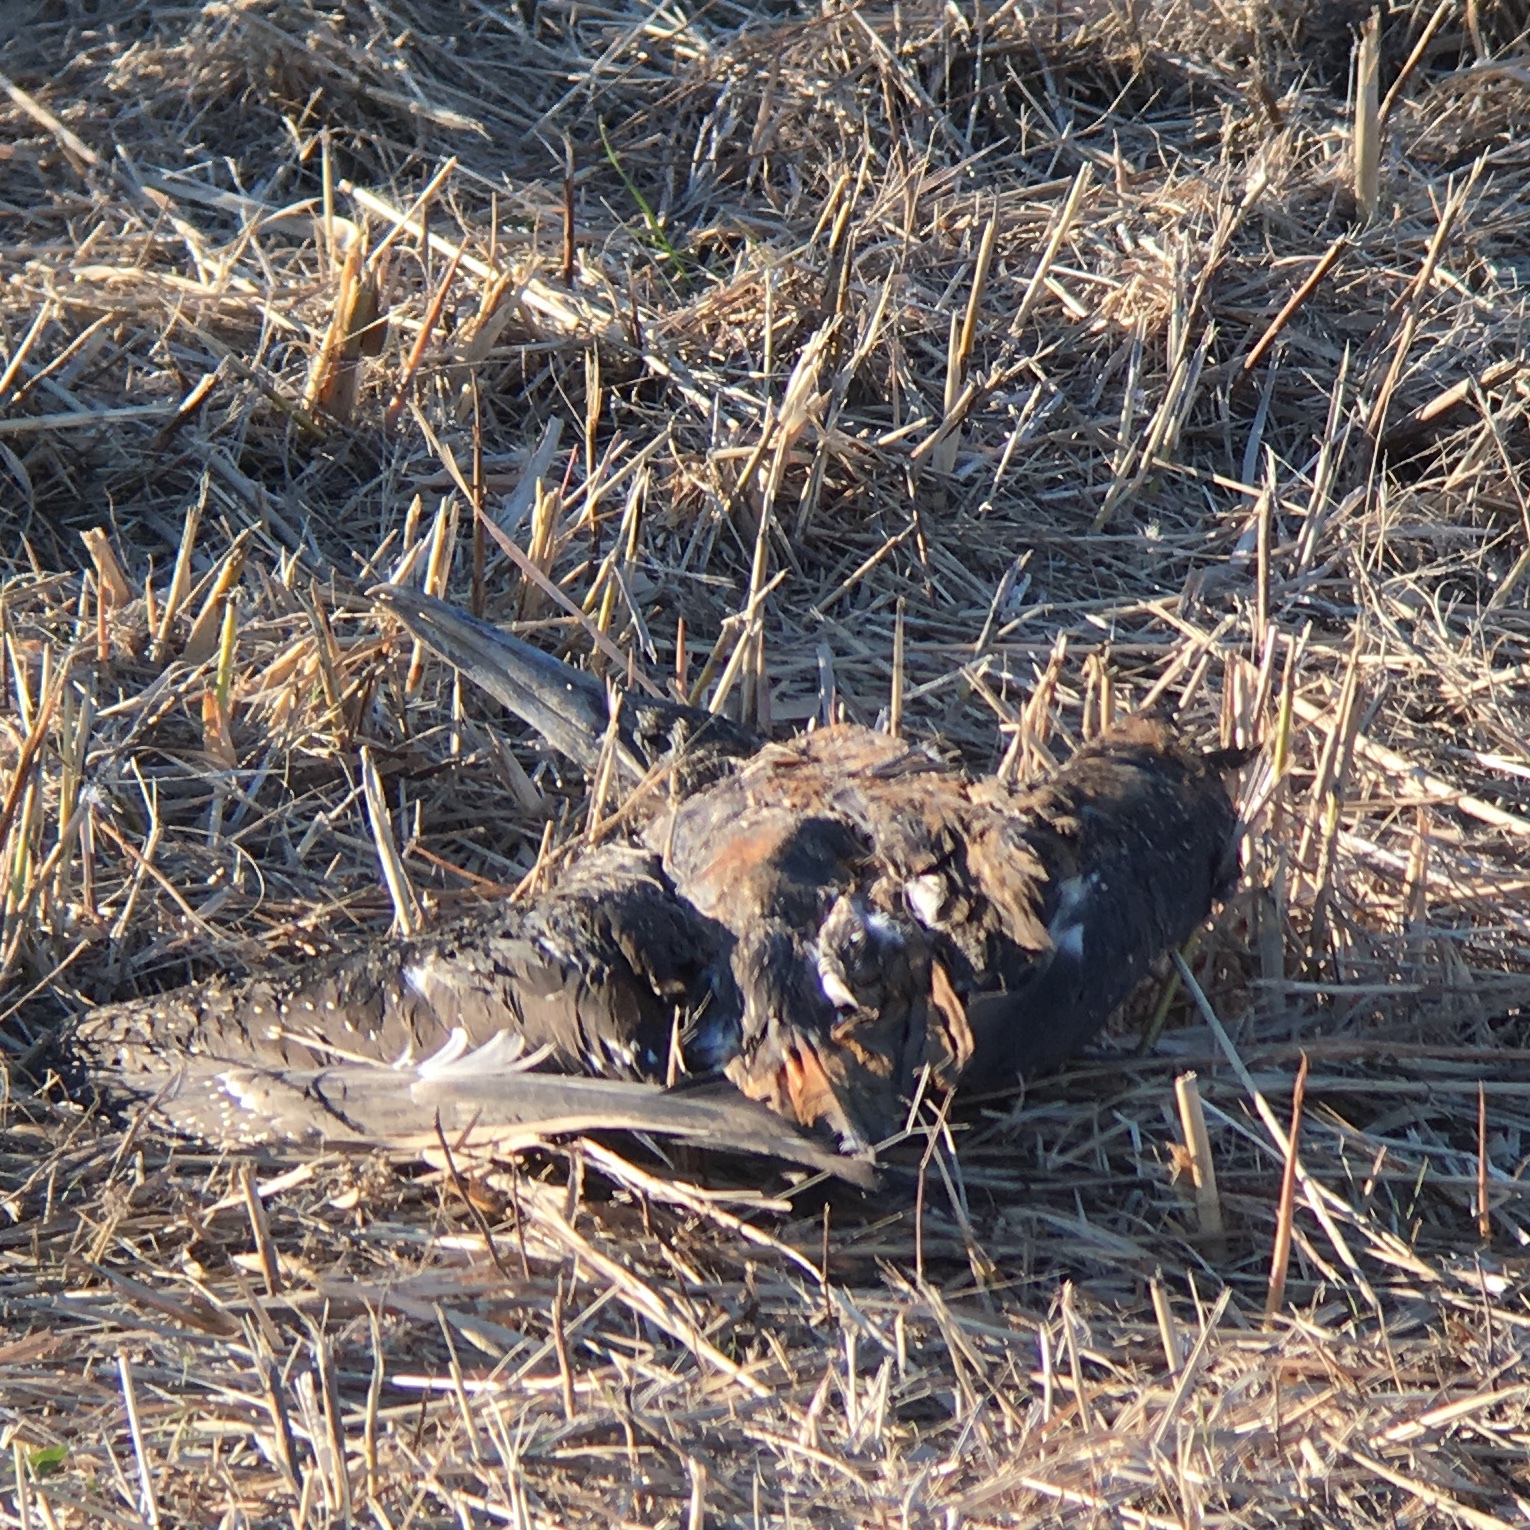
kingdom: Animalia
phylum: Chordata
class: Aves
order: Suliformes
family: Sulidae
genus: Morus
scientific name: Morus bassanus
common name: Northern gannet
